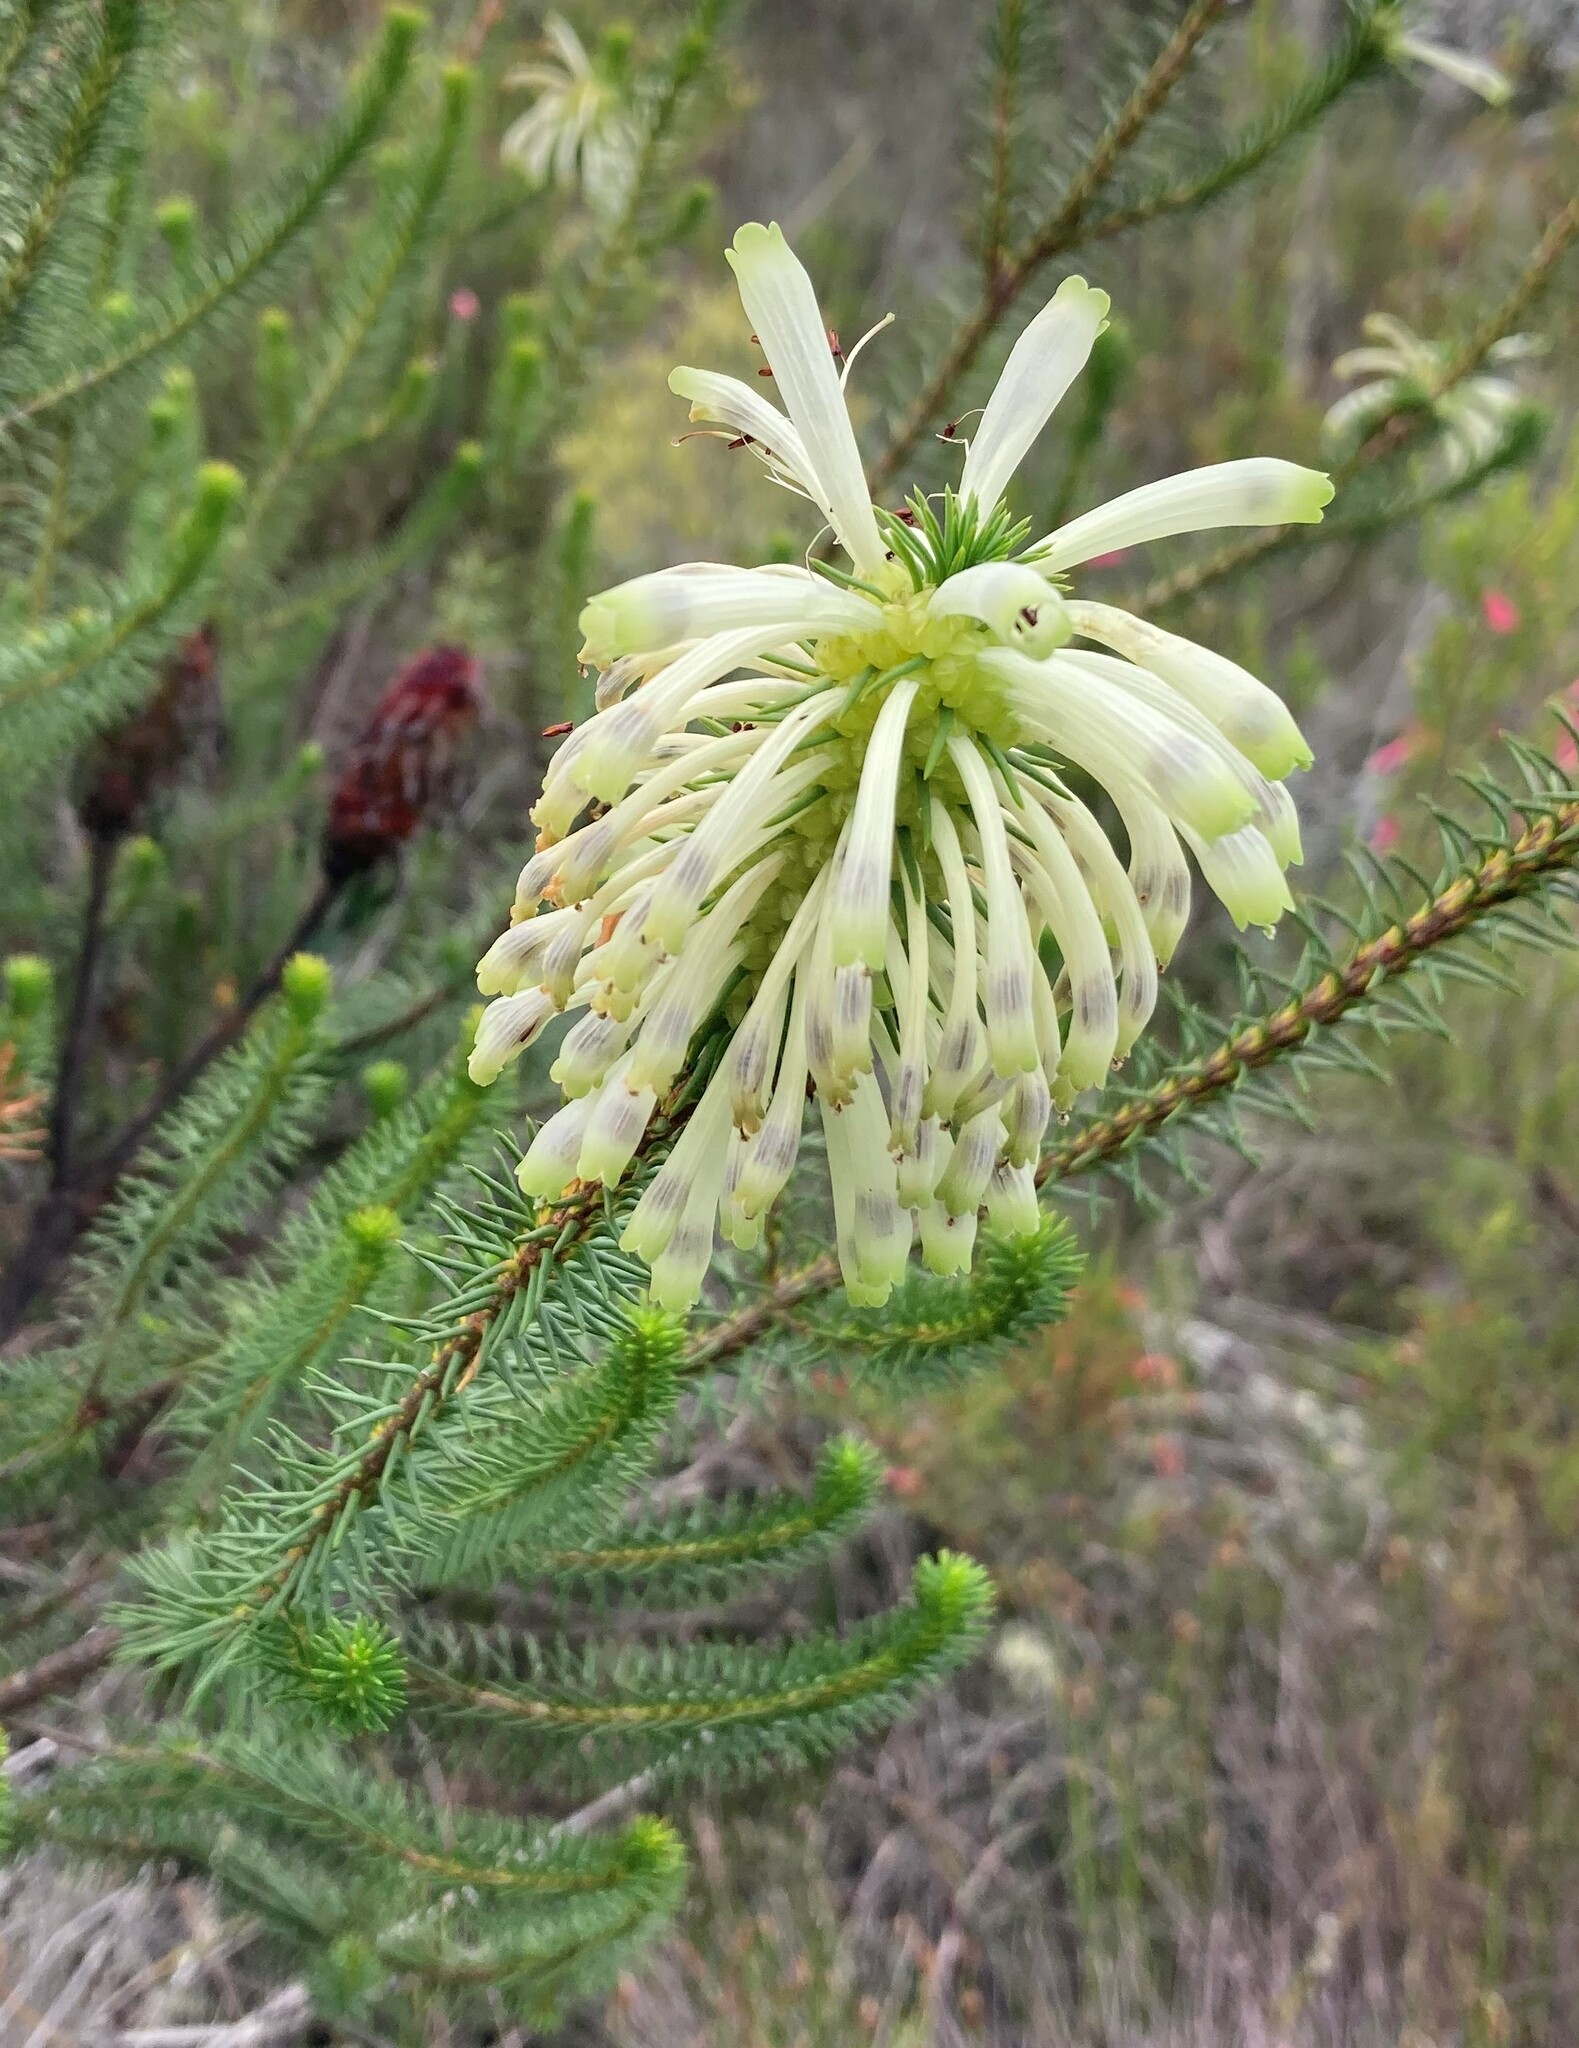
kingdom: Plantae
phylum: Tracheophyta
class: Magnoliopsida
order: Ericales
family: Ericaceae
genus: Erica
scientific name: Erica sessiliflora
